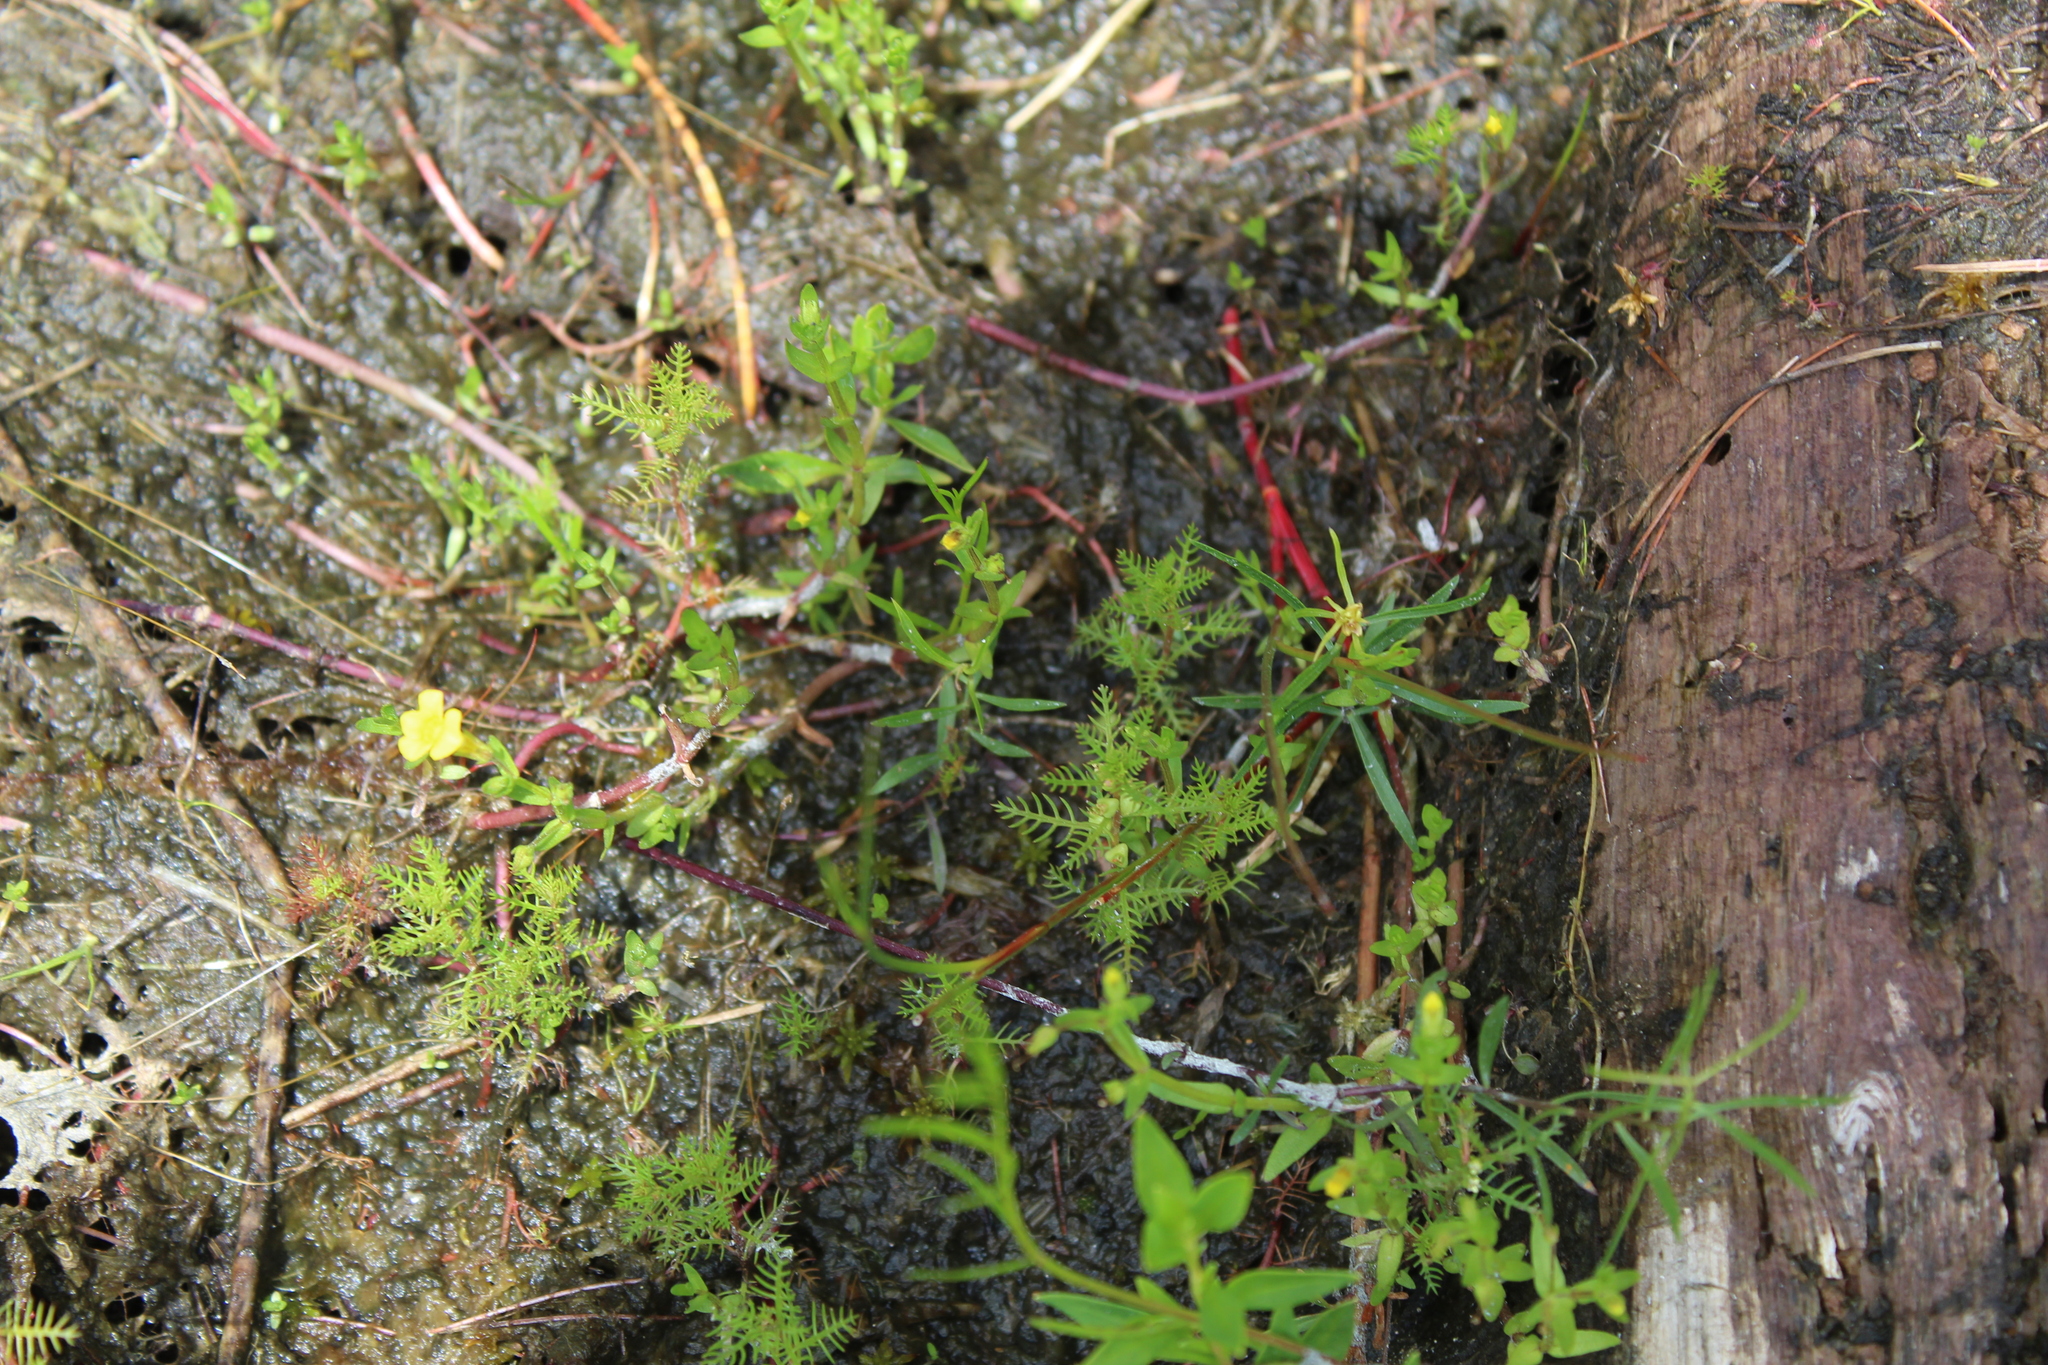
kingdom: Plantae
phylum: Tracheophyta
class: Magnoliopsida
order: Saxifragales
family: Haloragaceae
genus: Proserpinaca
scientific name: Proserpinaca pectinata
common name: Comb-leaved mermaidweed
